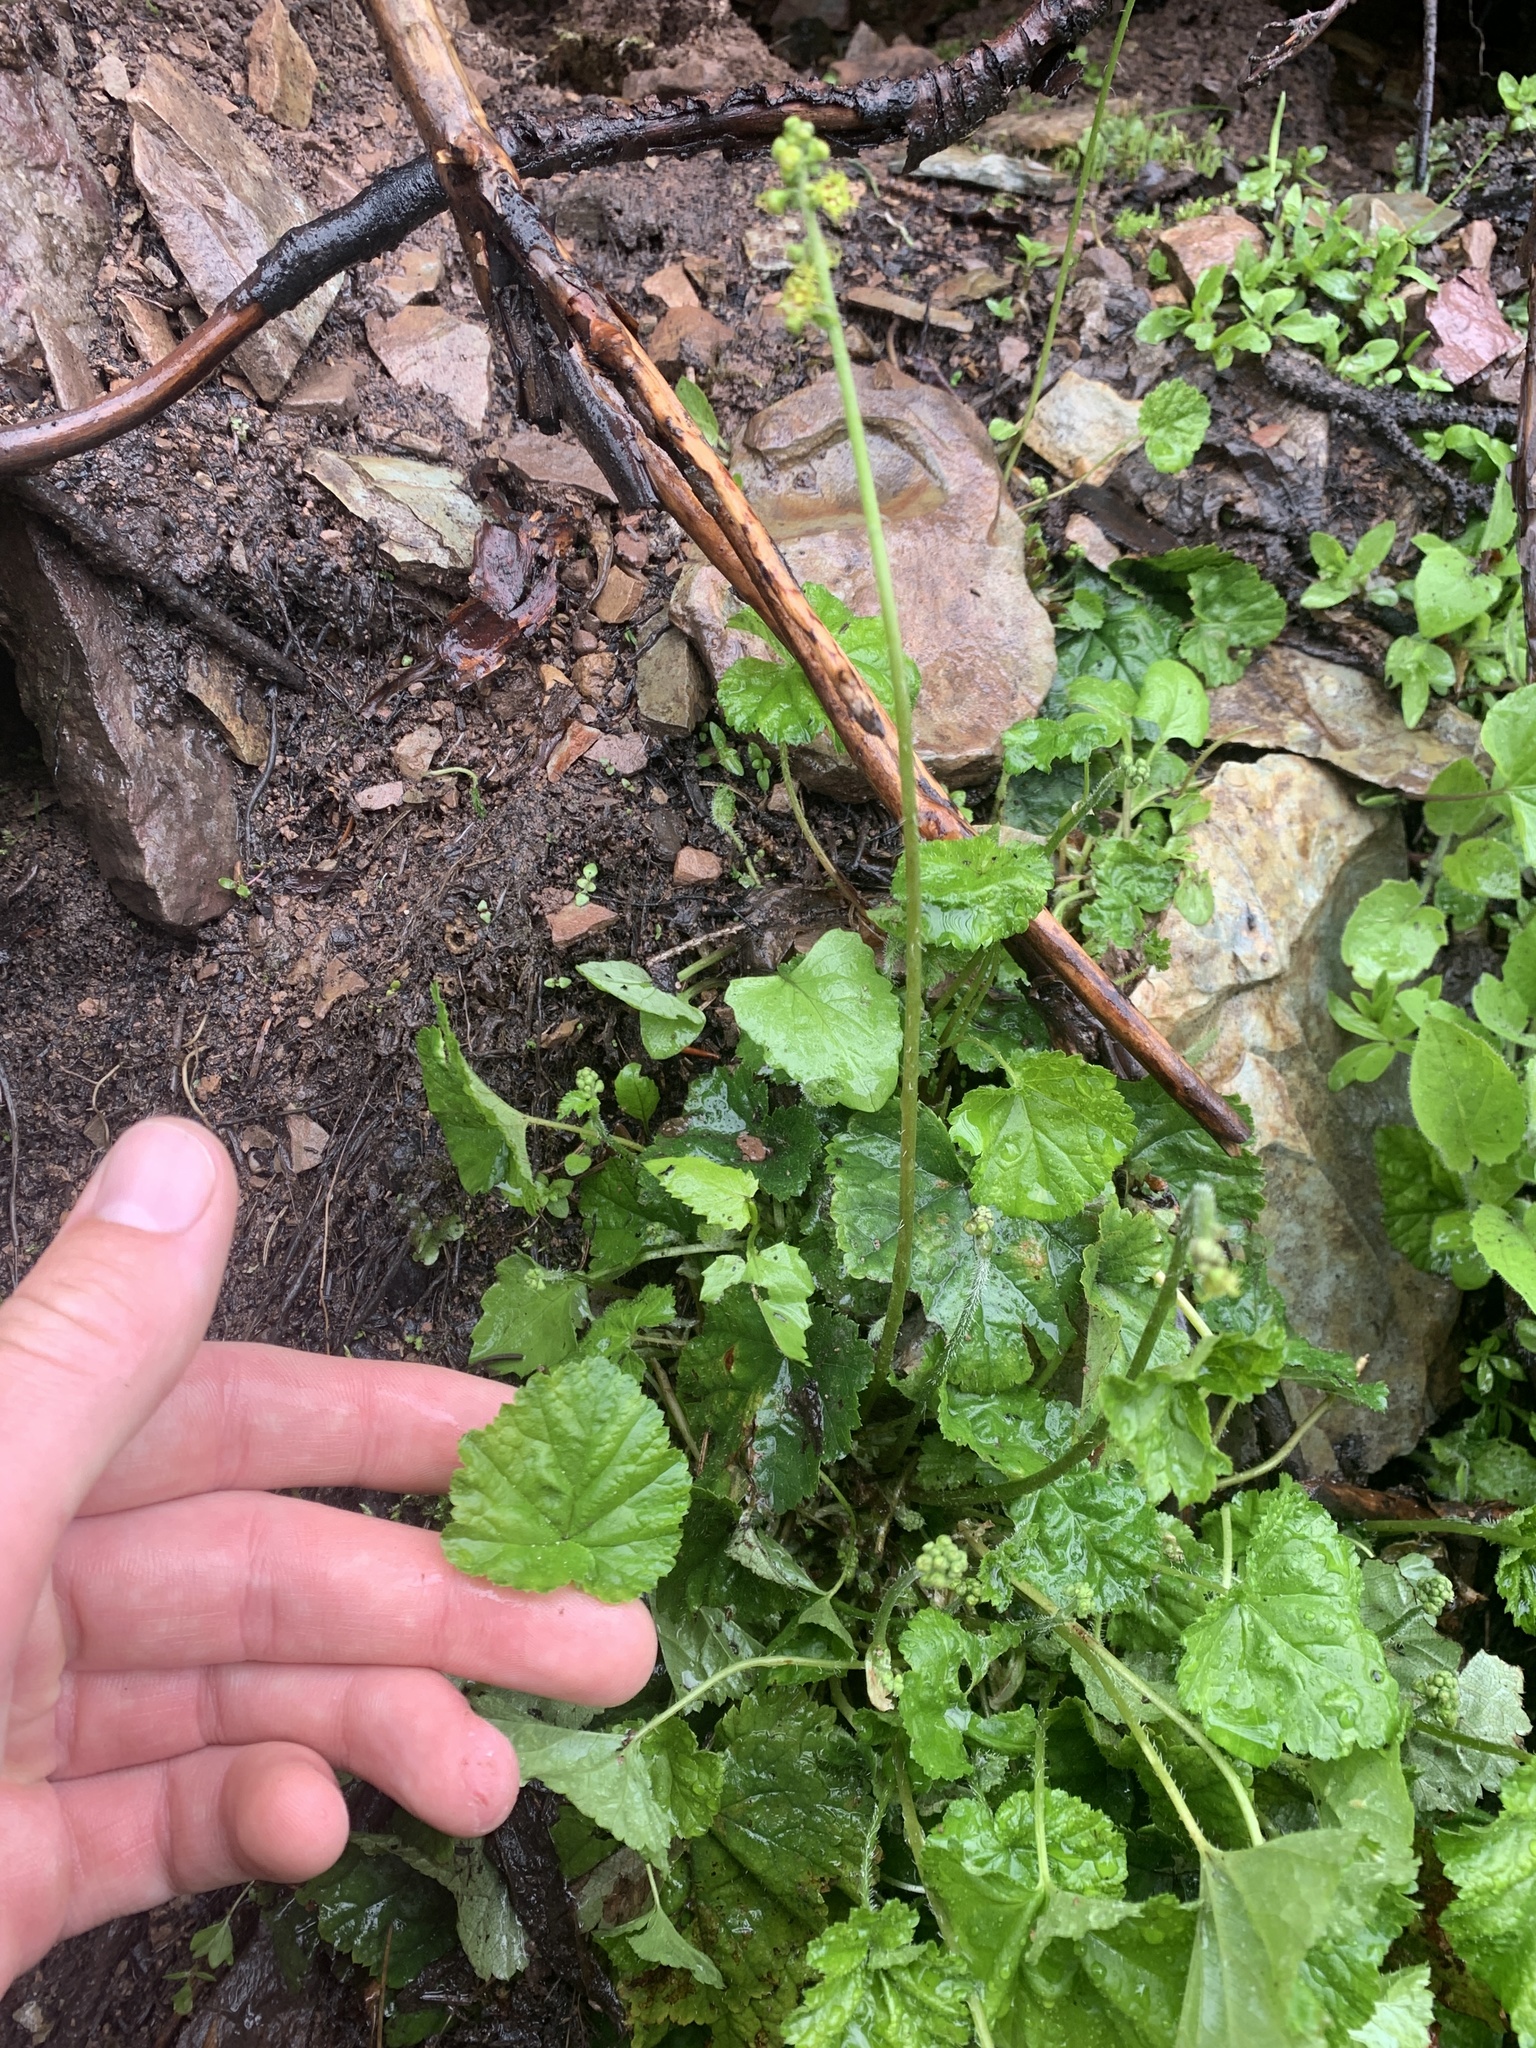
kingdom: Plantae
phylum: Tracheophyta
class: Magnoliopsida
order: Saxifragales
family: Saxifragaceae
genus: Pectiantia
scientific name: Pectiantia pentandra
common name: Alpine bishop's-cap
